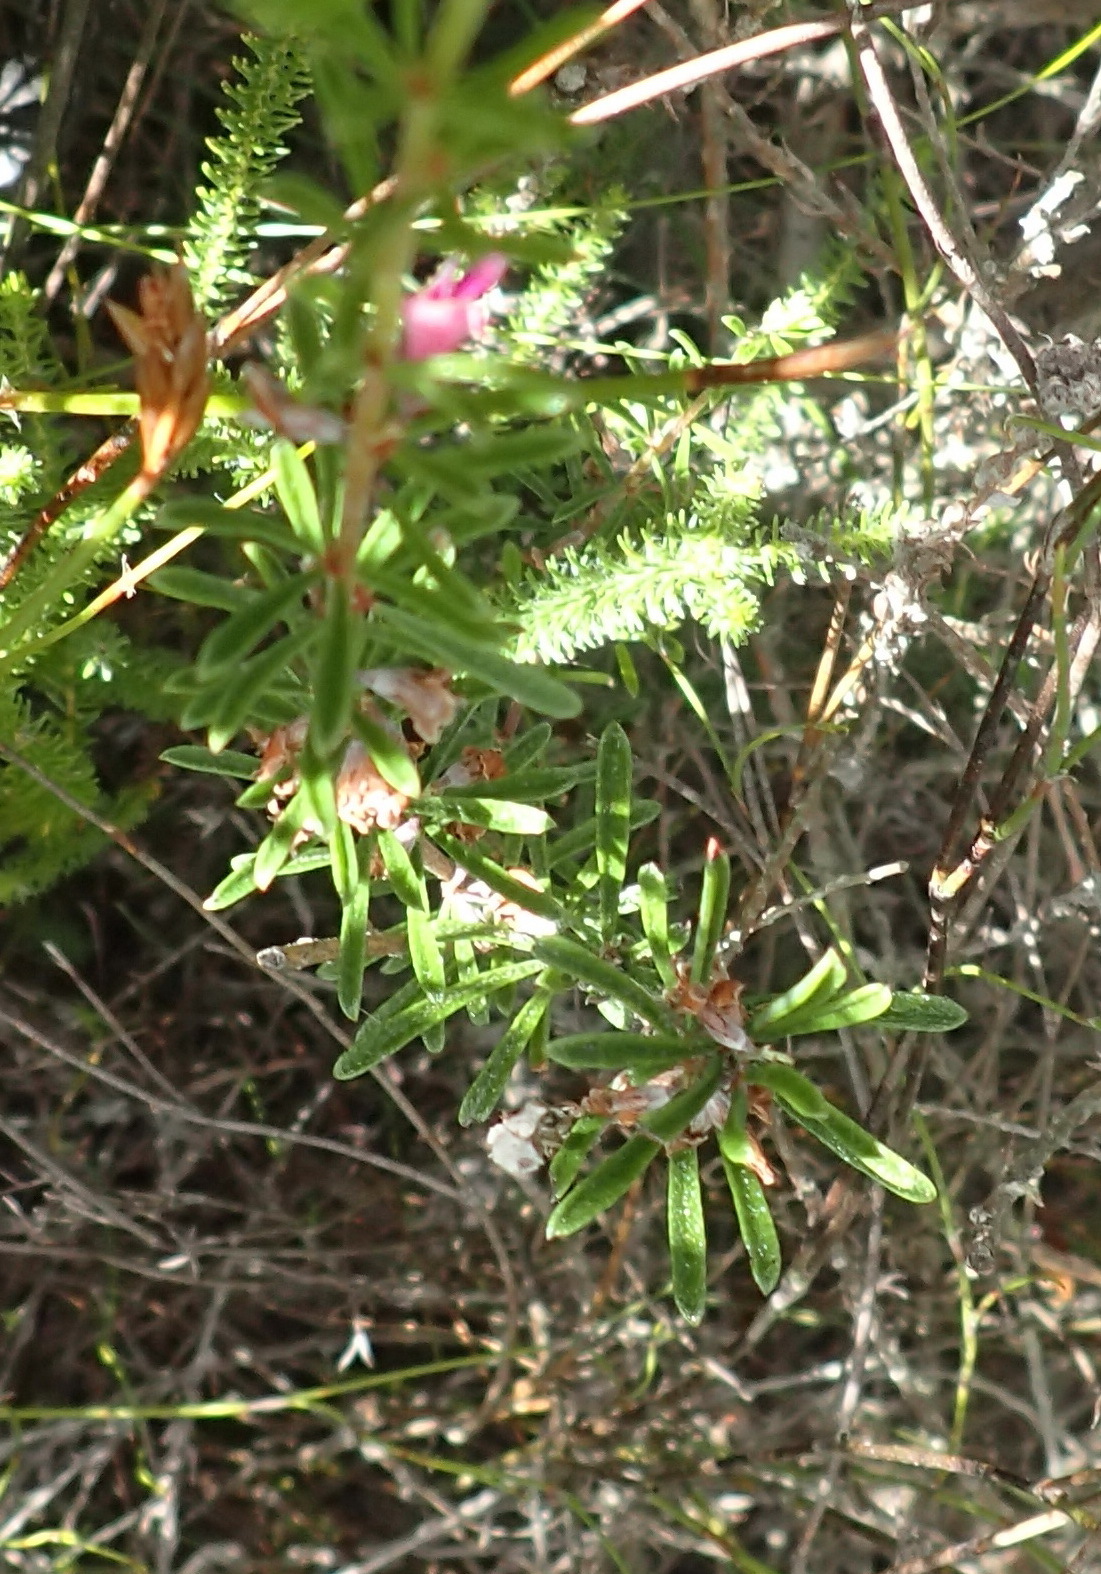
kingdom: Plantae
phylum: Tracheophyta
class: Magnoliopsida
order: Fabales
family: Fabaceae
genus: Indigofera
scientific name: Indigofera pappei
